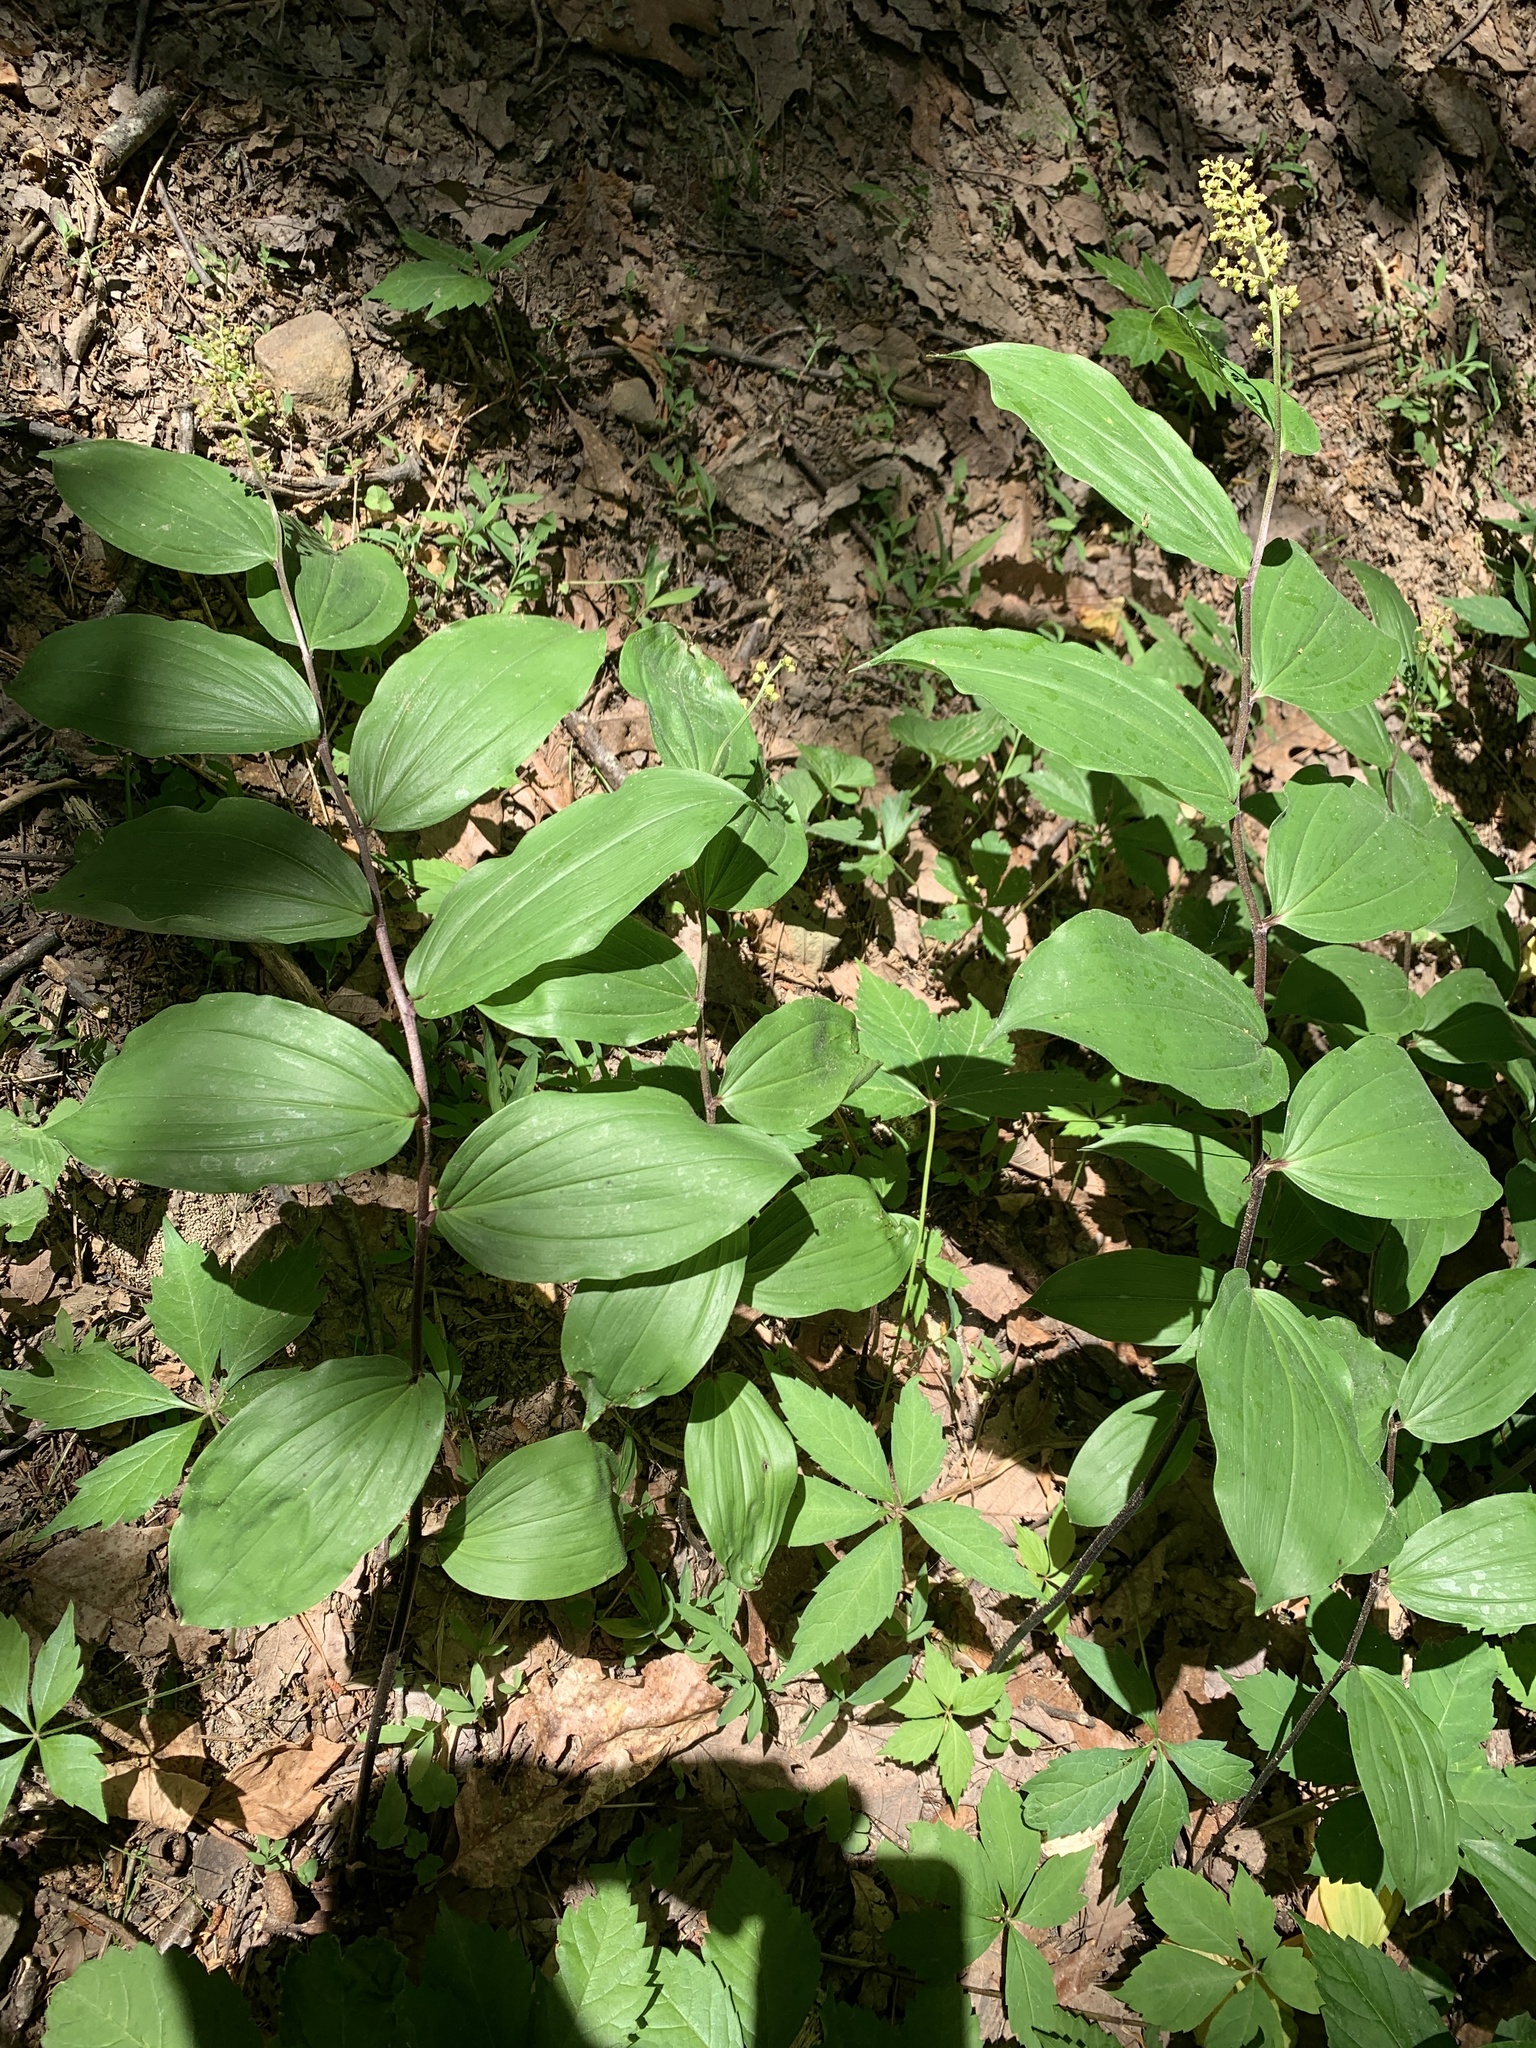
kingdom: Plantae
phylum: Tracheophyta
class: Liliopsida
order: Asparagales
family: Asparagaceae
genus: Maianthemum
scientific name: Maianthemum racemosum
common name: False spikenard
